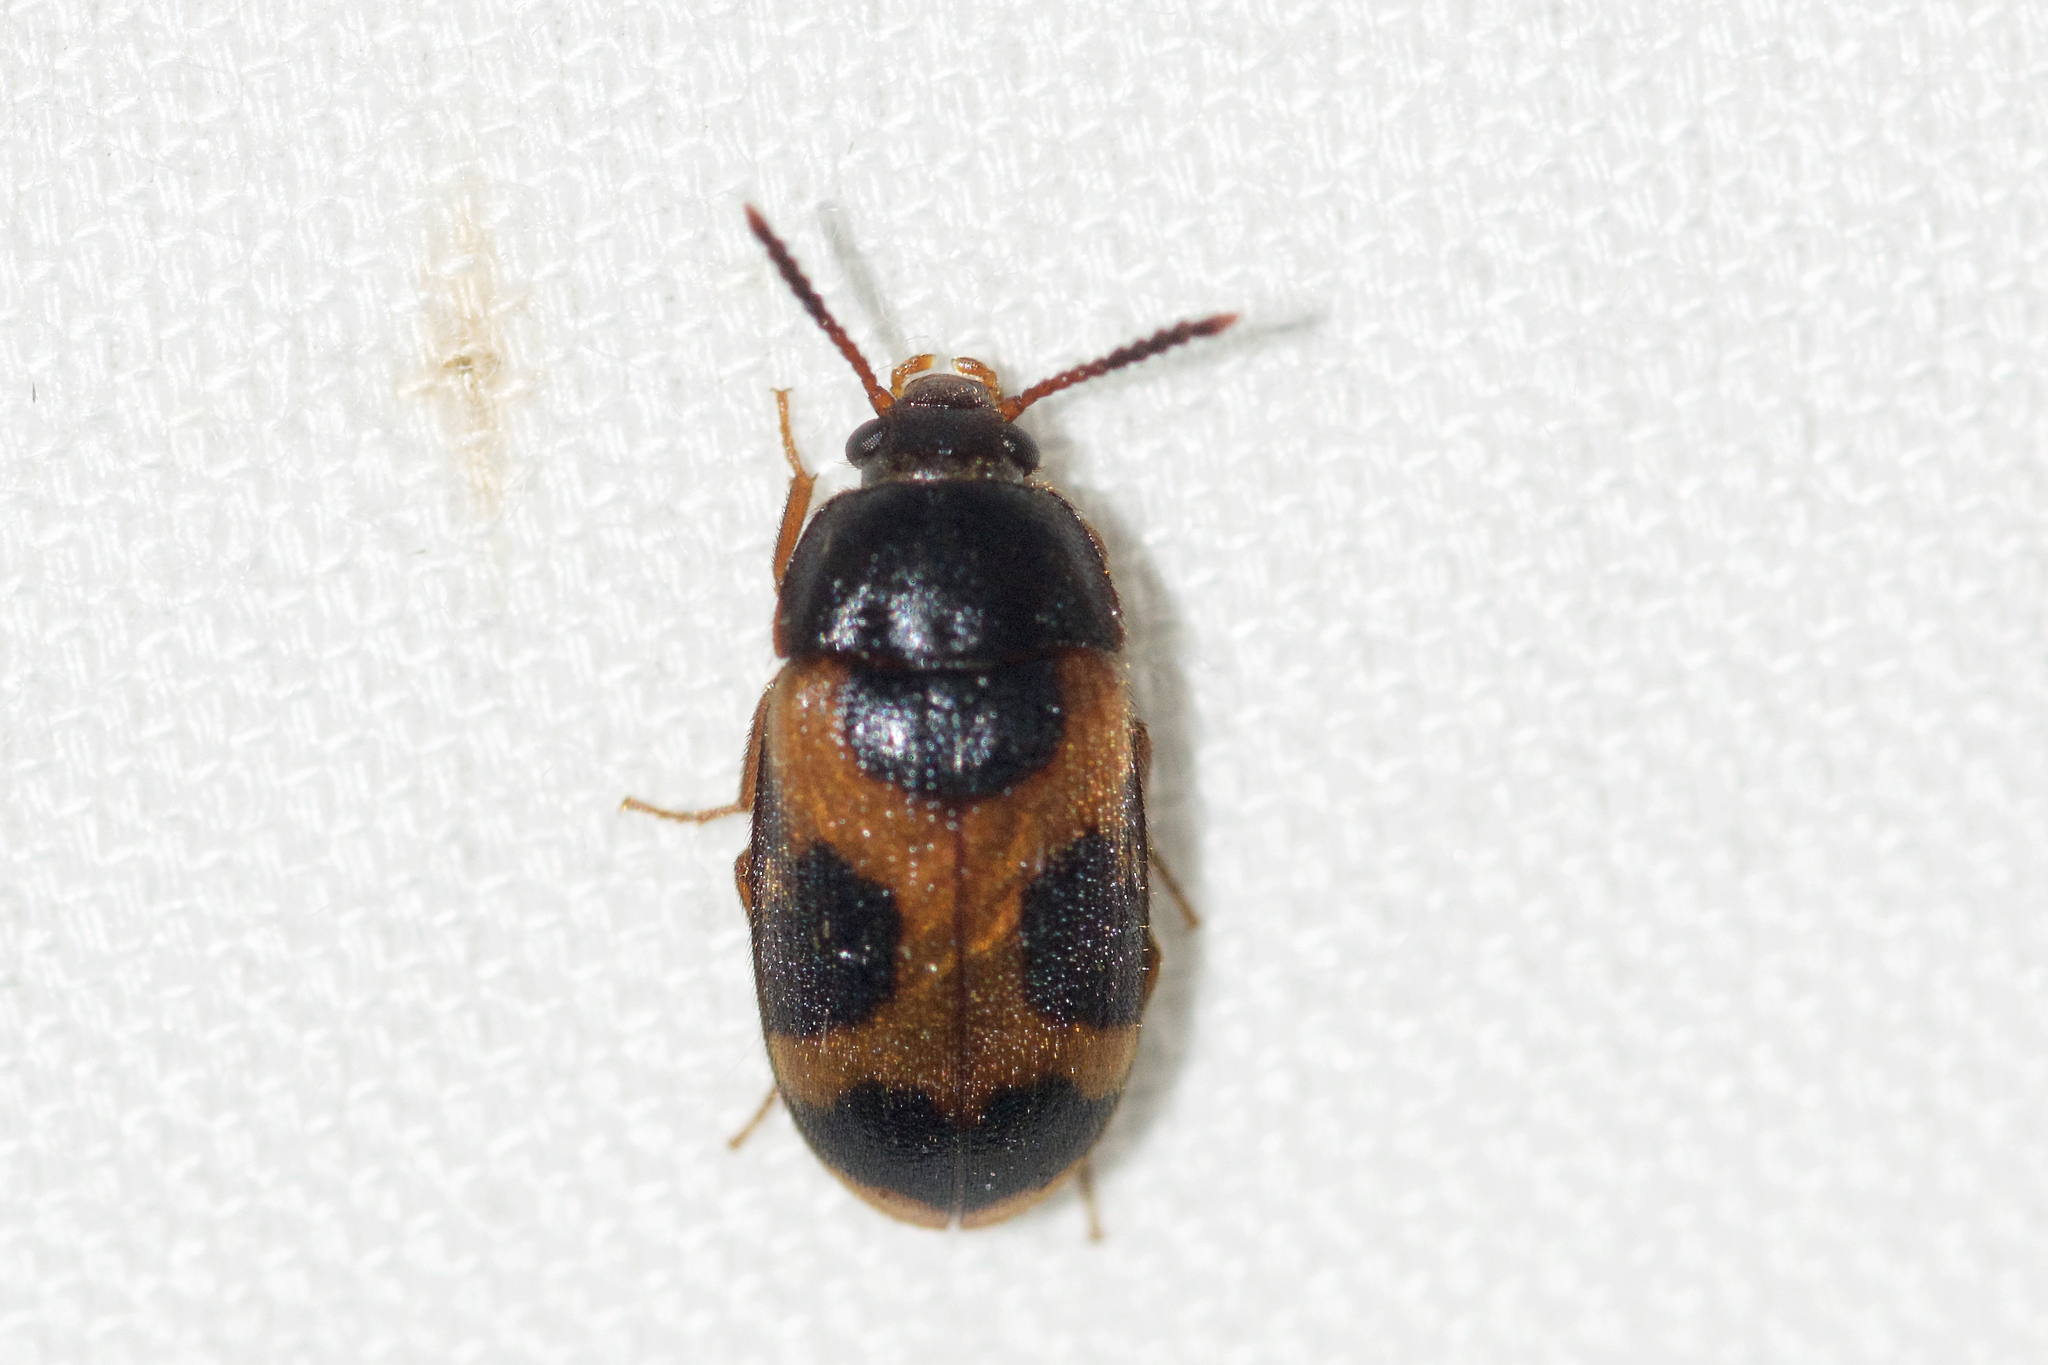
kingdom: Animalia
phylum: Arthropoda
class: Insecta
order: Coleoptera
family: Mycetophagidae
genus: Mycetophagus
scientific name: Mycetophagus punctatus
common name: Hairy fungus beetle
